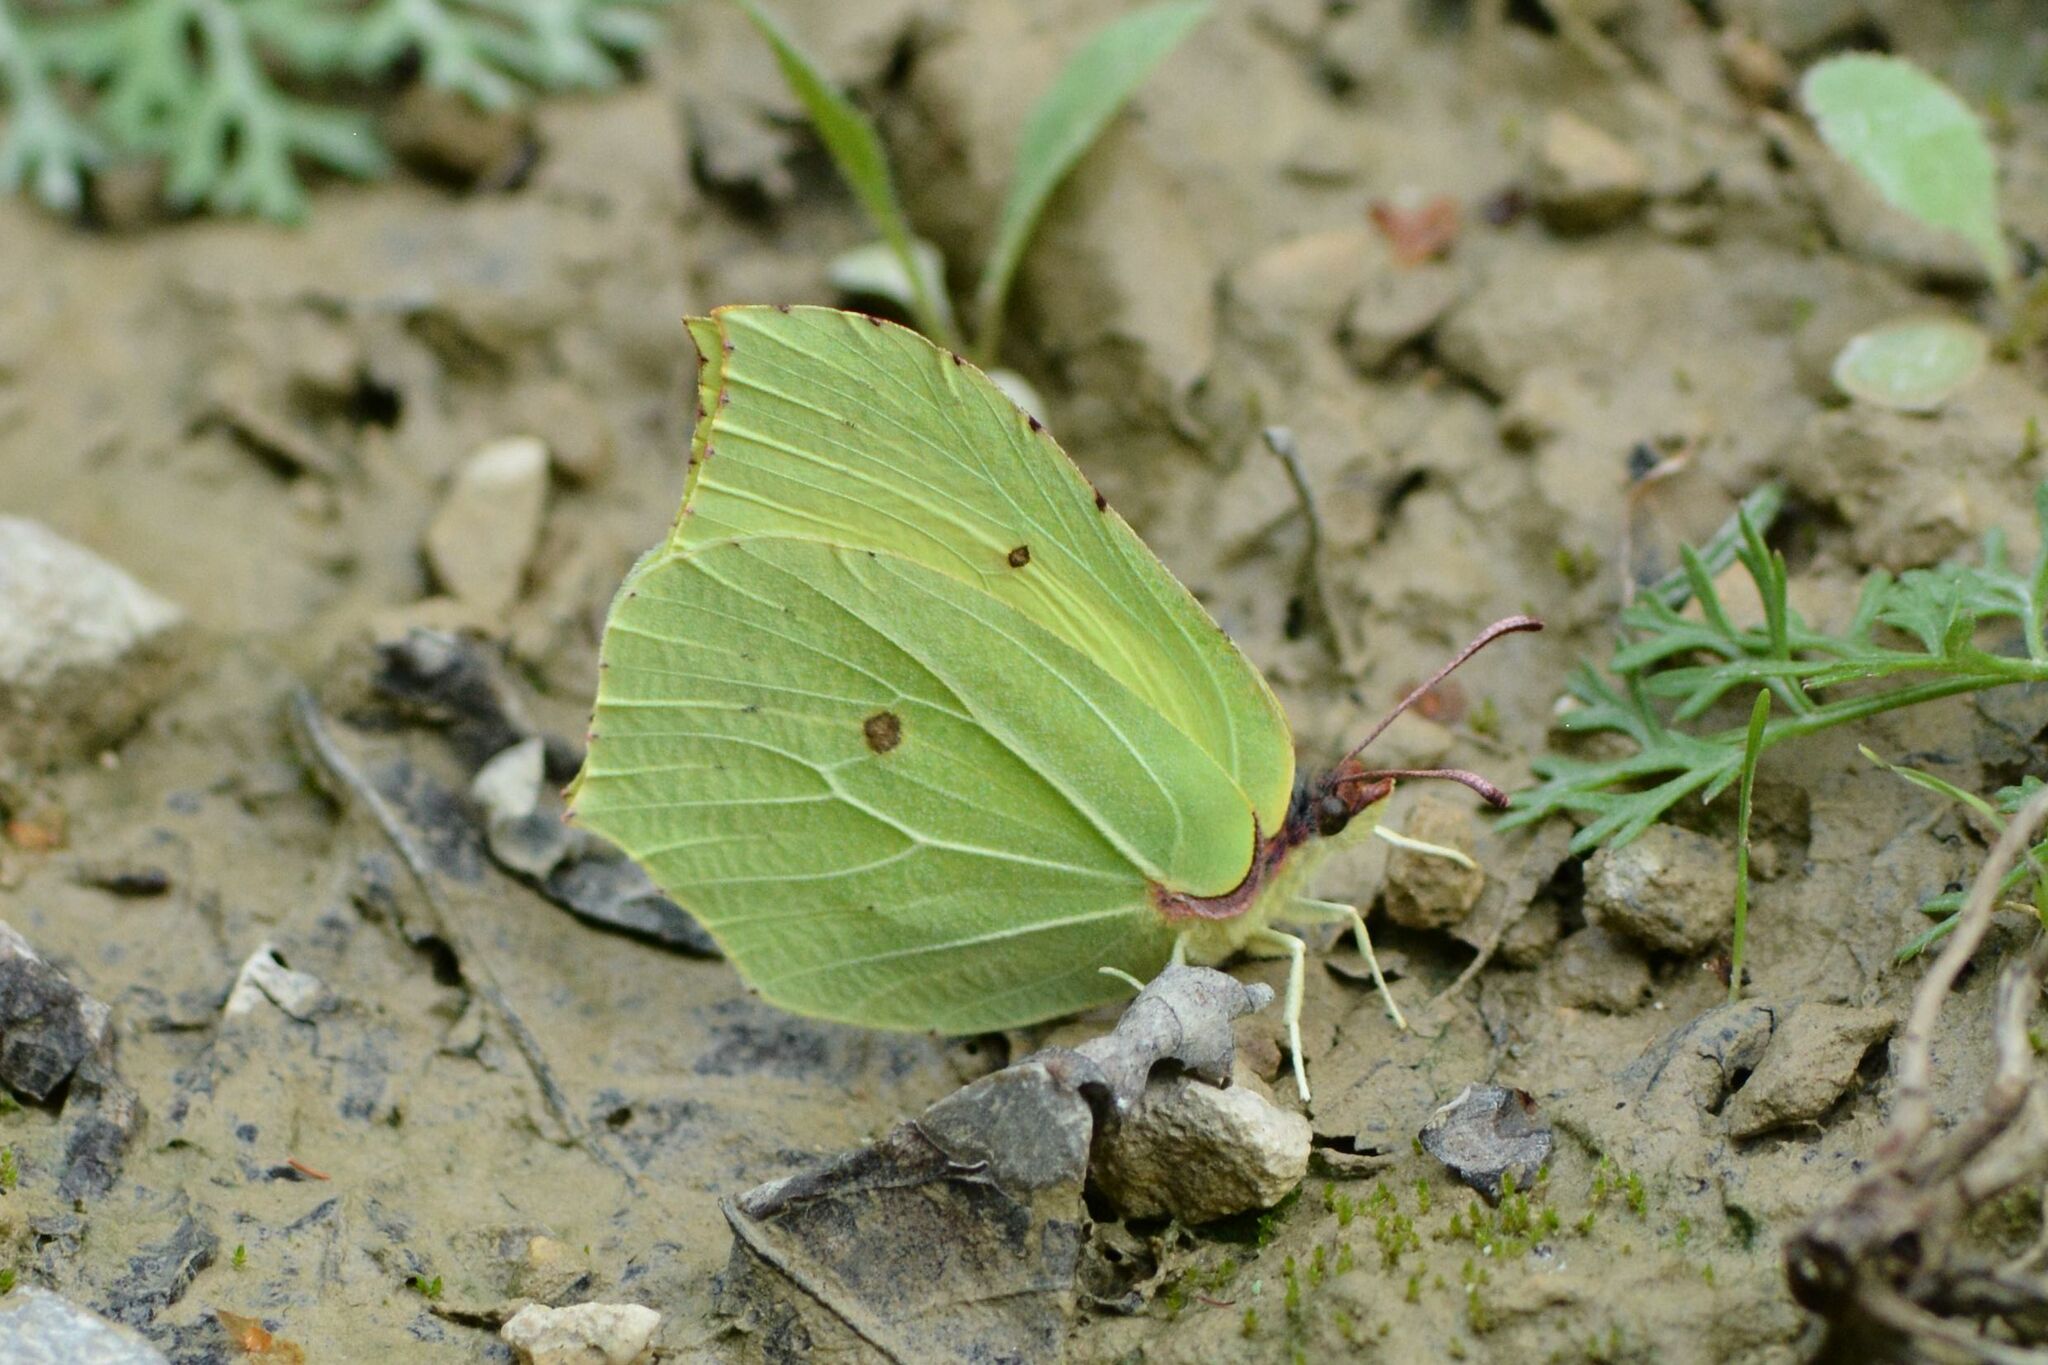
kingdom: Animalia
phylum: Arthropoda
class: Insecta
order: Lepidoptera
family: Pieridae
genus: Gonepteryx
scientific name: Gonepteryx rhamni
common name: Brimstone
